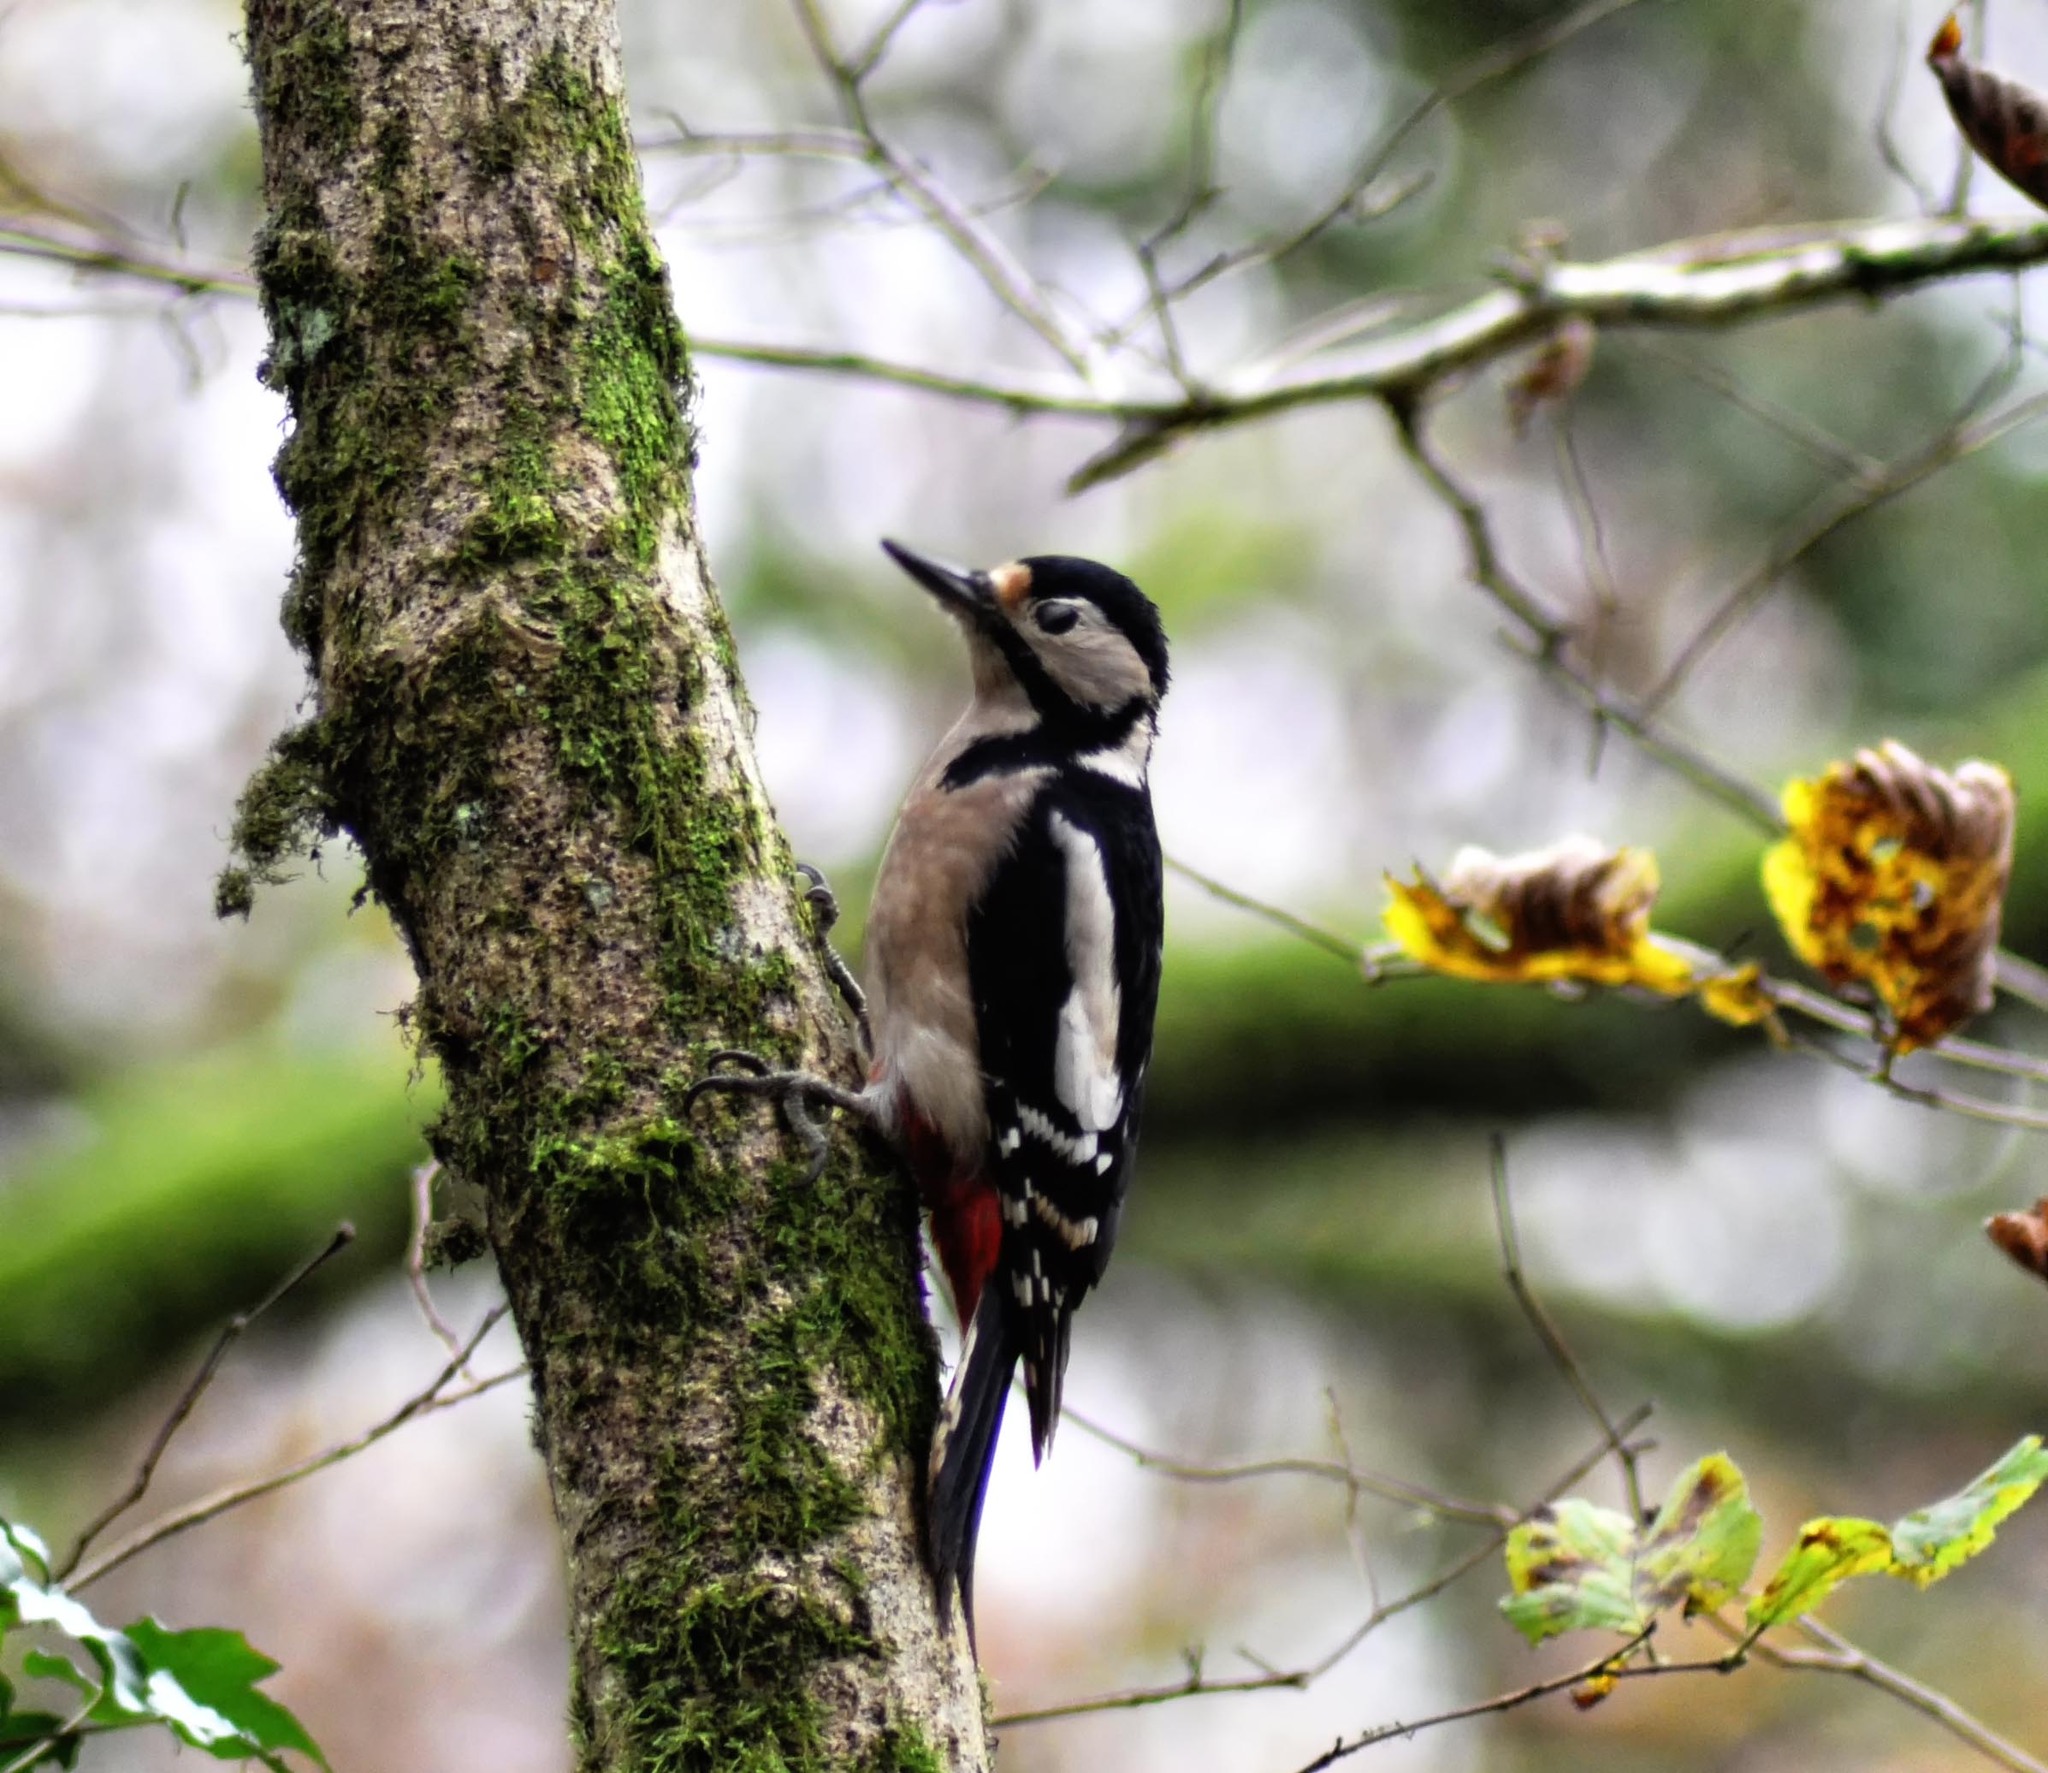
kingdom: Animalia
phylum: Chordata
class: Aves
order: Piciformes
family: Picidae
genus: Dendrocopos
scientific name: Dendrocopos major
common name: Great spotted woodpecker
